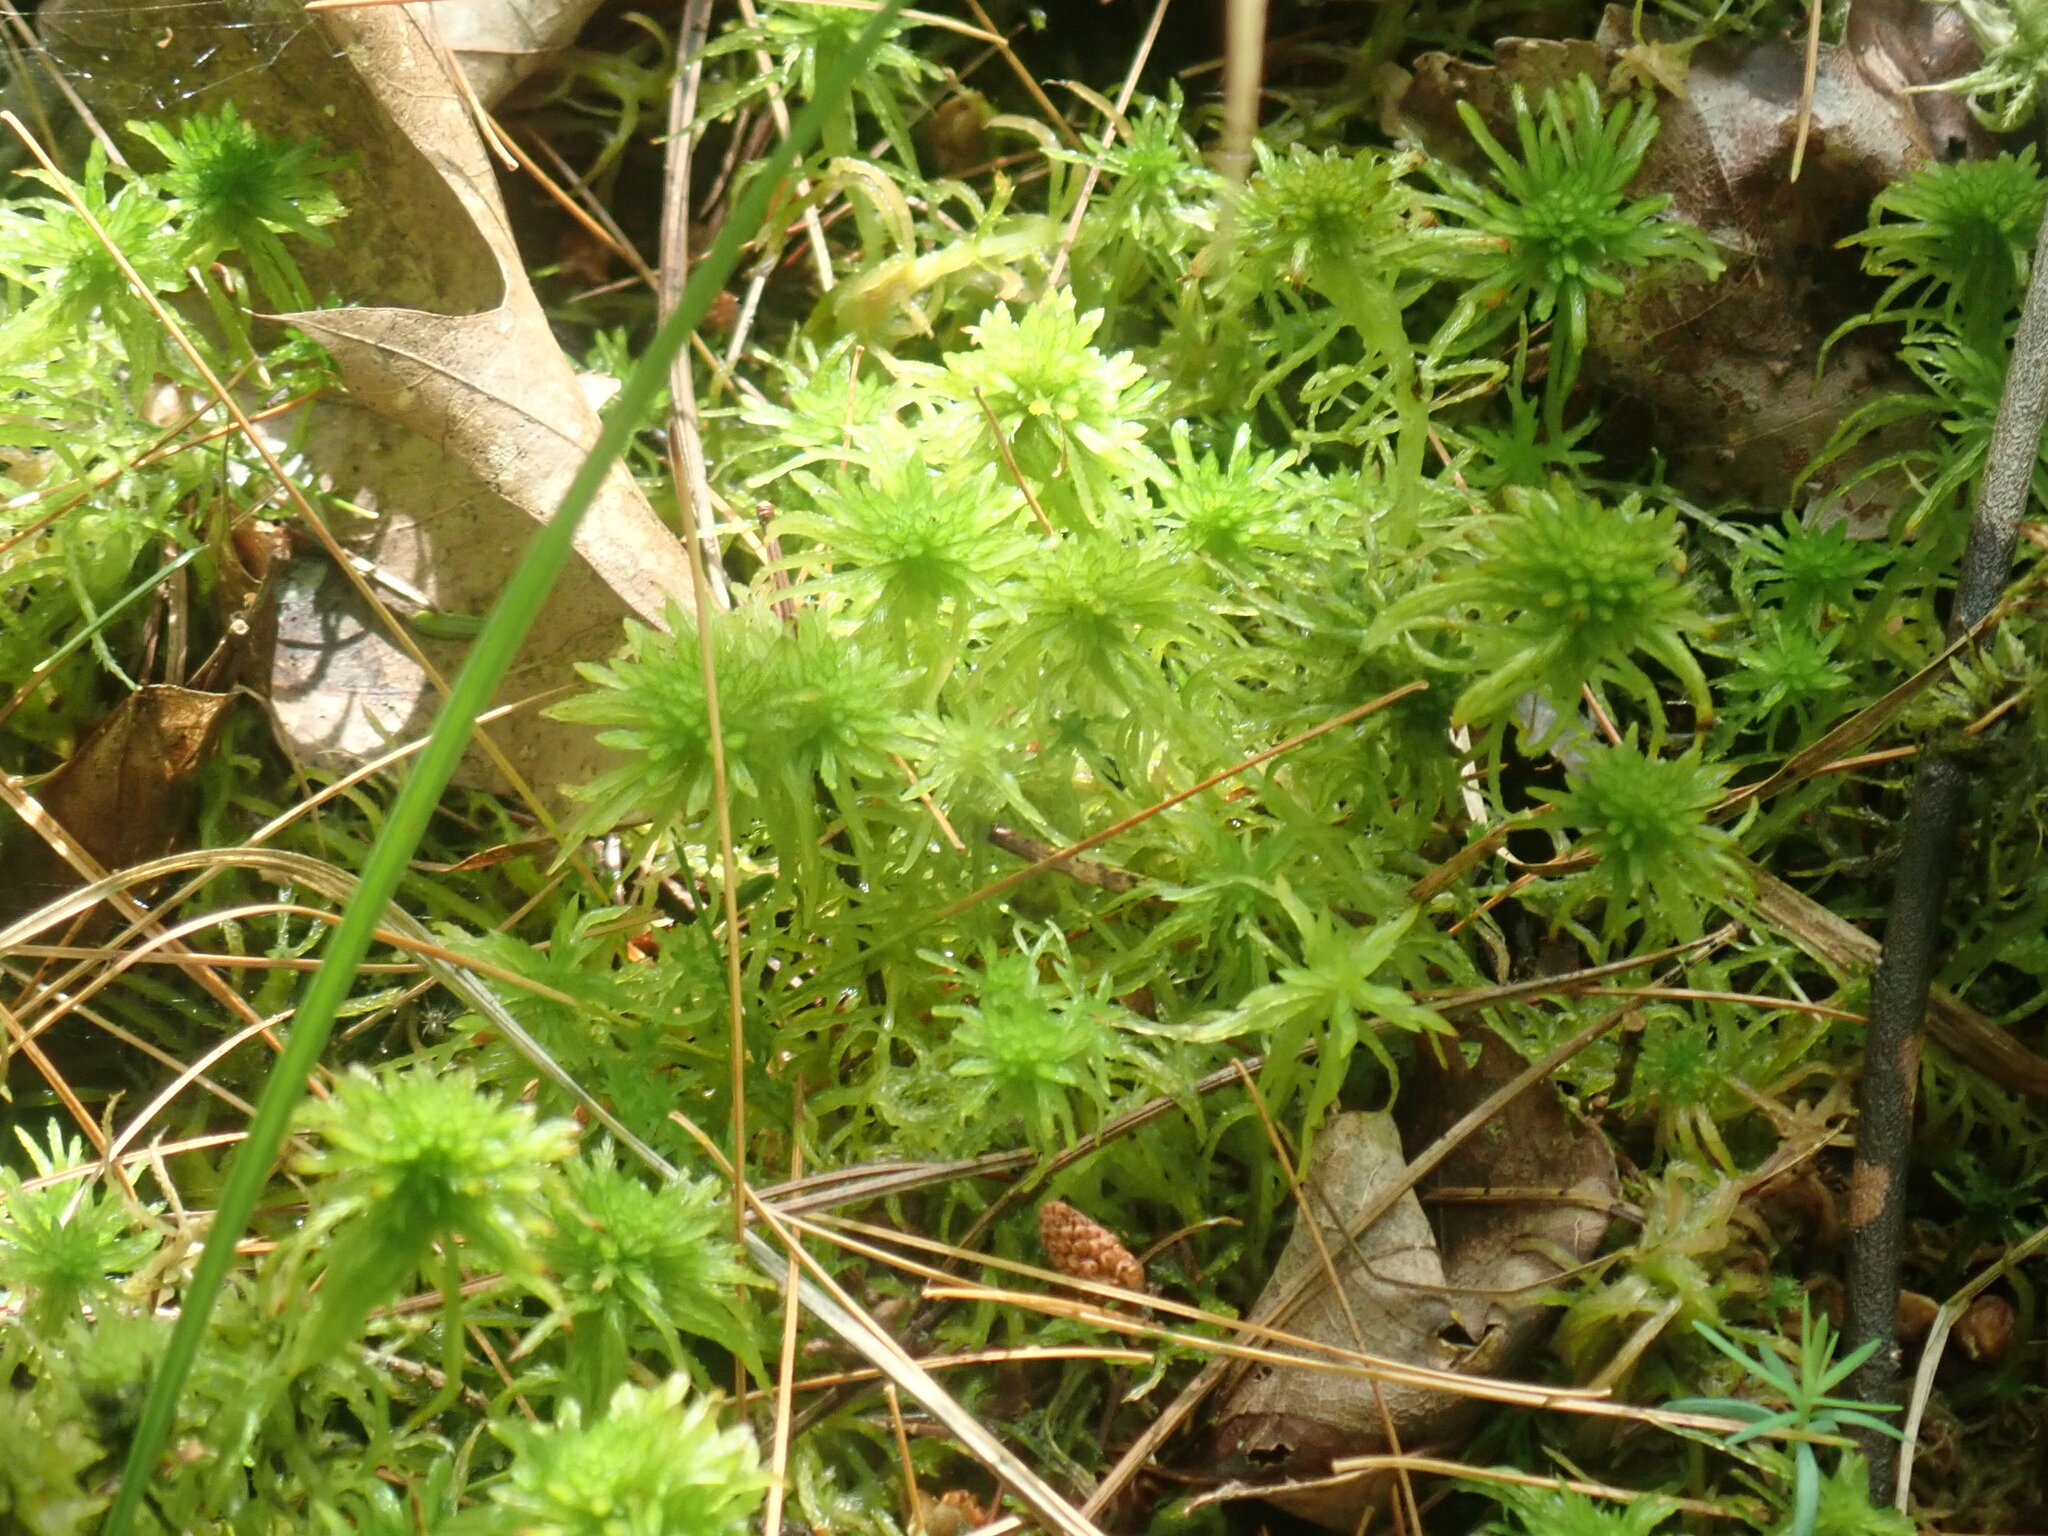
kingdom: Plantae
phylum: Bryophyta
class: Sphagnopsida
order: Sphagnales
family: Sphagnaceae
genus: Sphagnum
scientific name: Sphagnum
